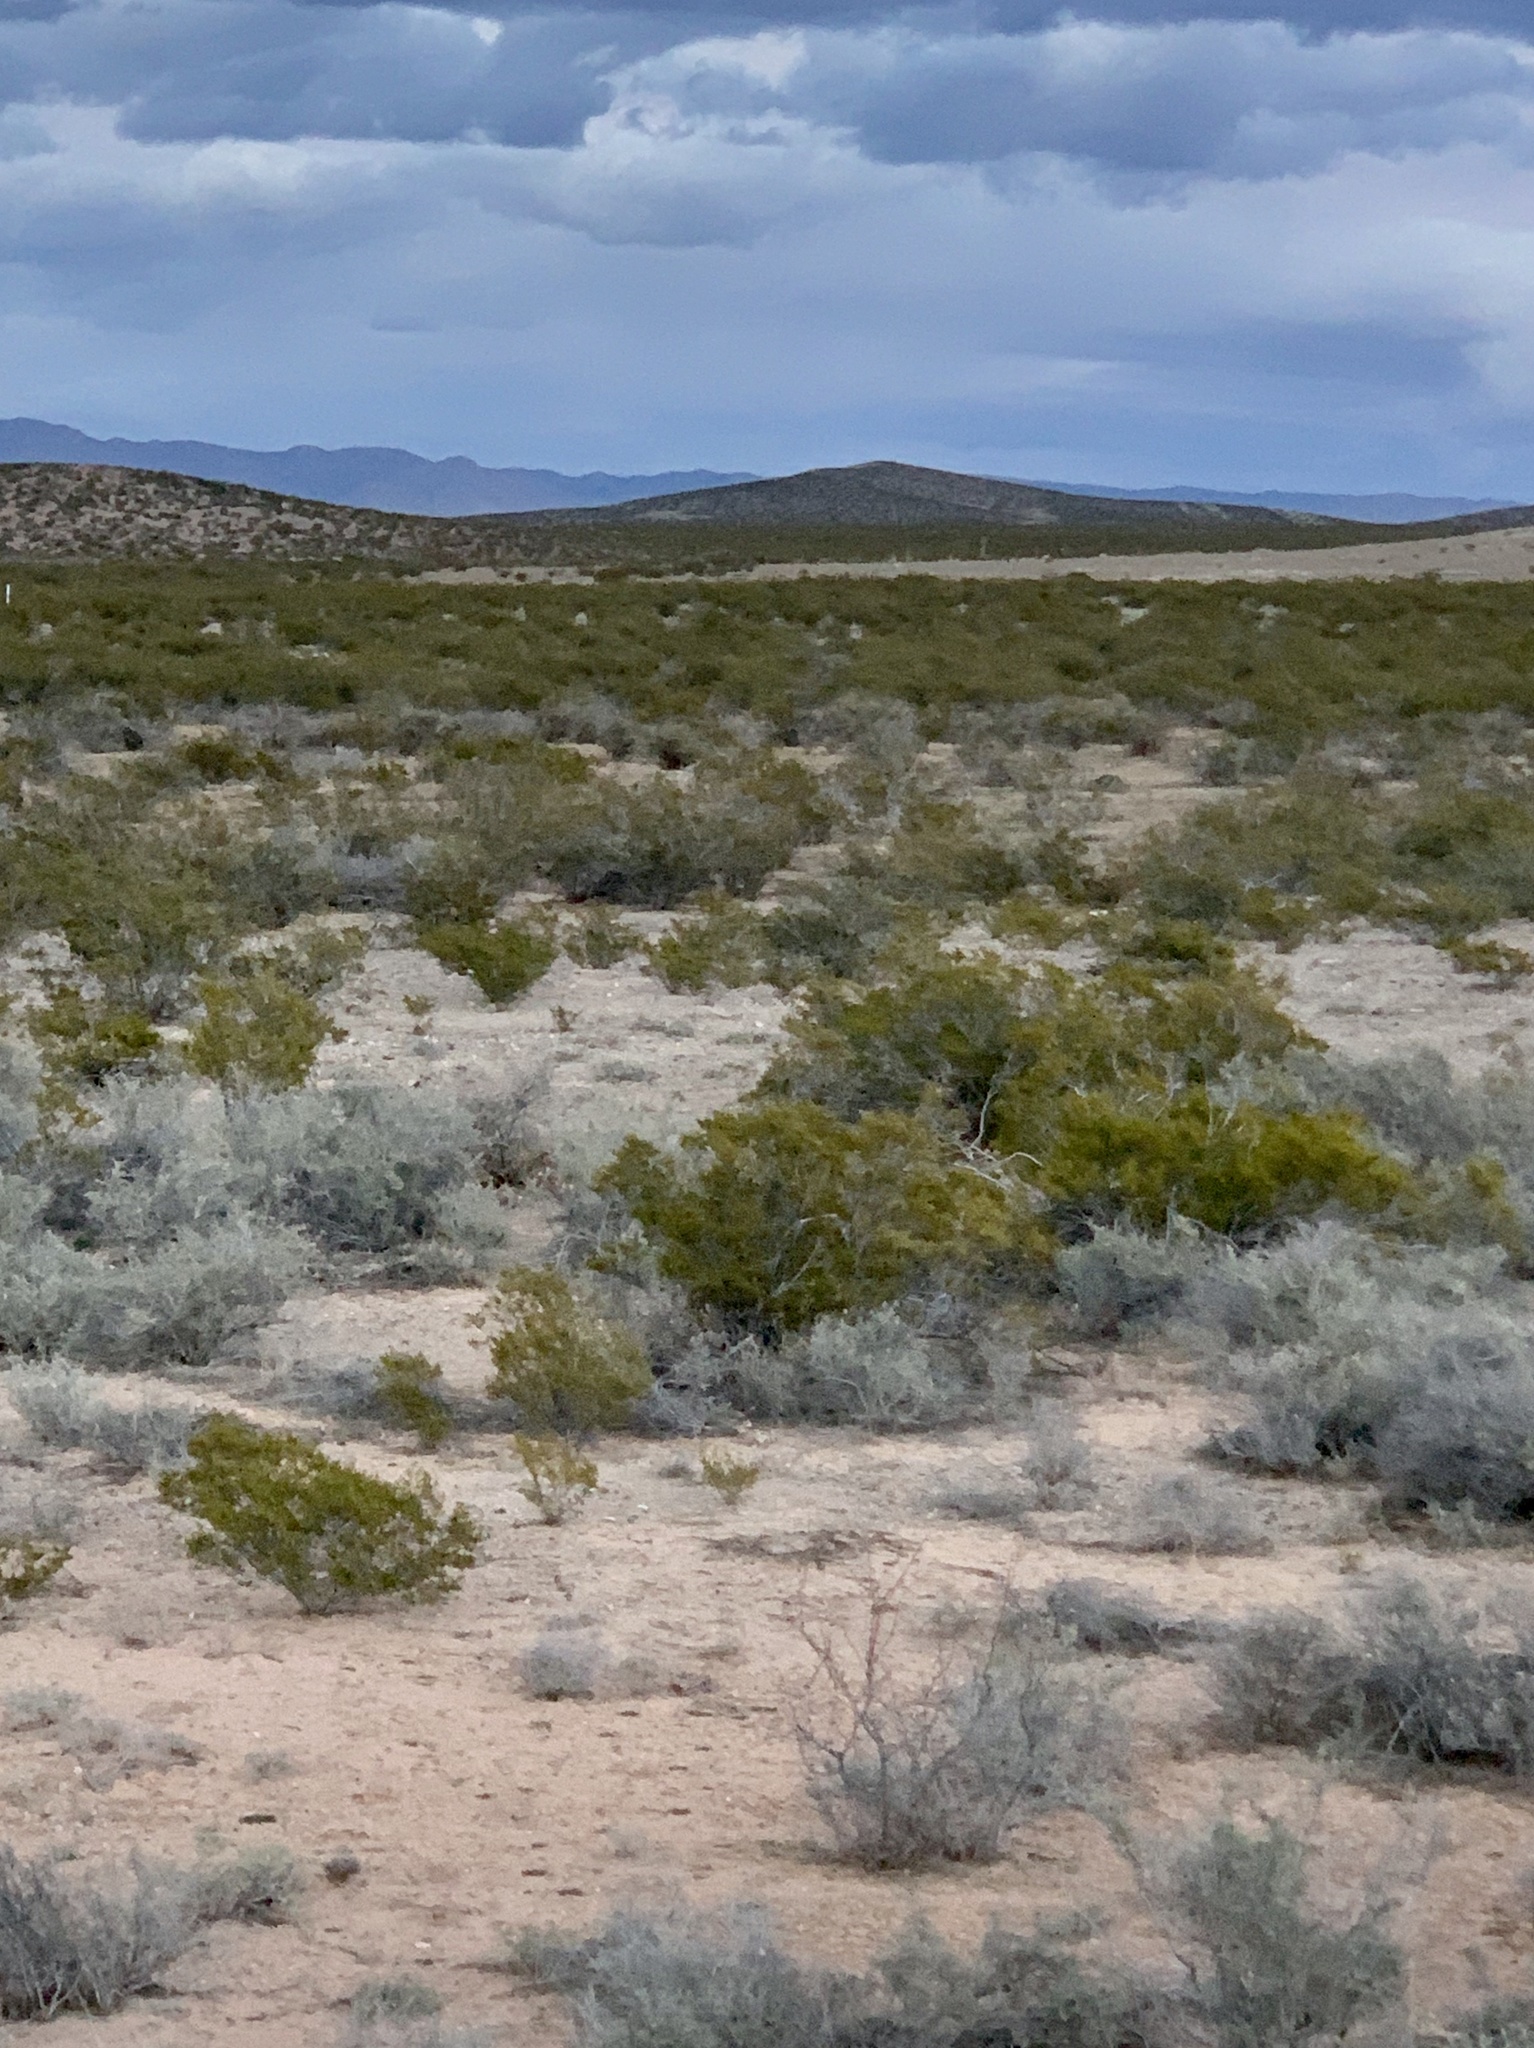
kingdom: Plantae
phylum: Tracheophyta
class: Magnoliopsida
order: Zygophyllales
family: Zygophyllaceae
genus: Larrea
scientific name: Larrea tridentata
